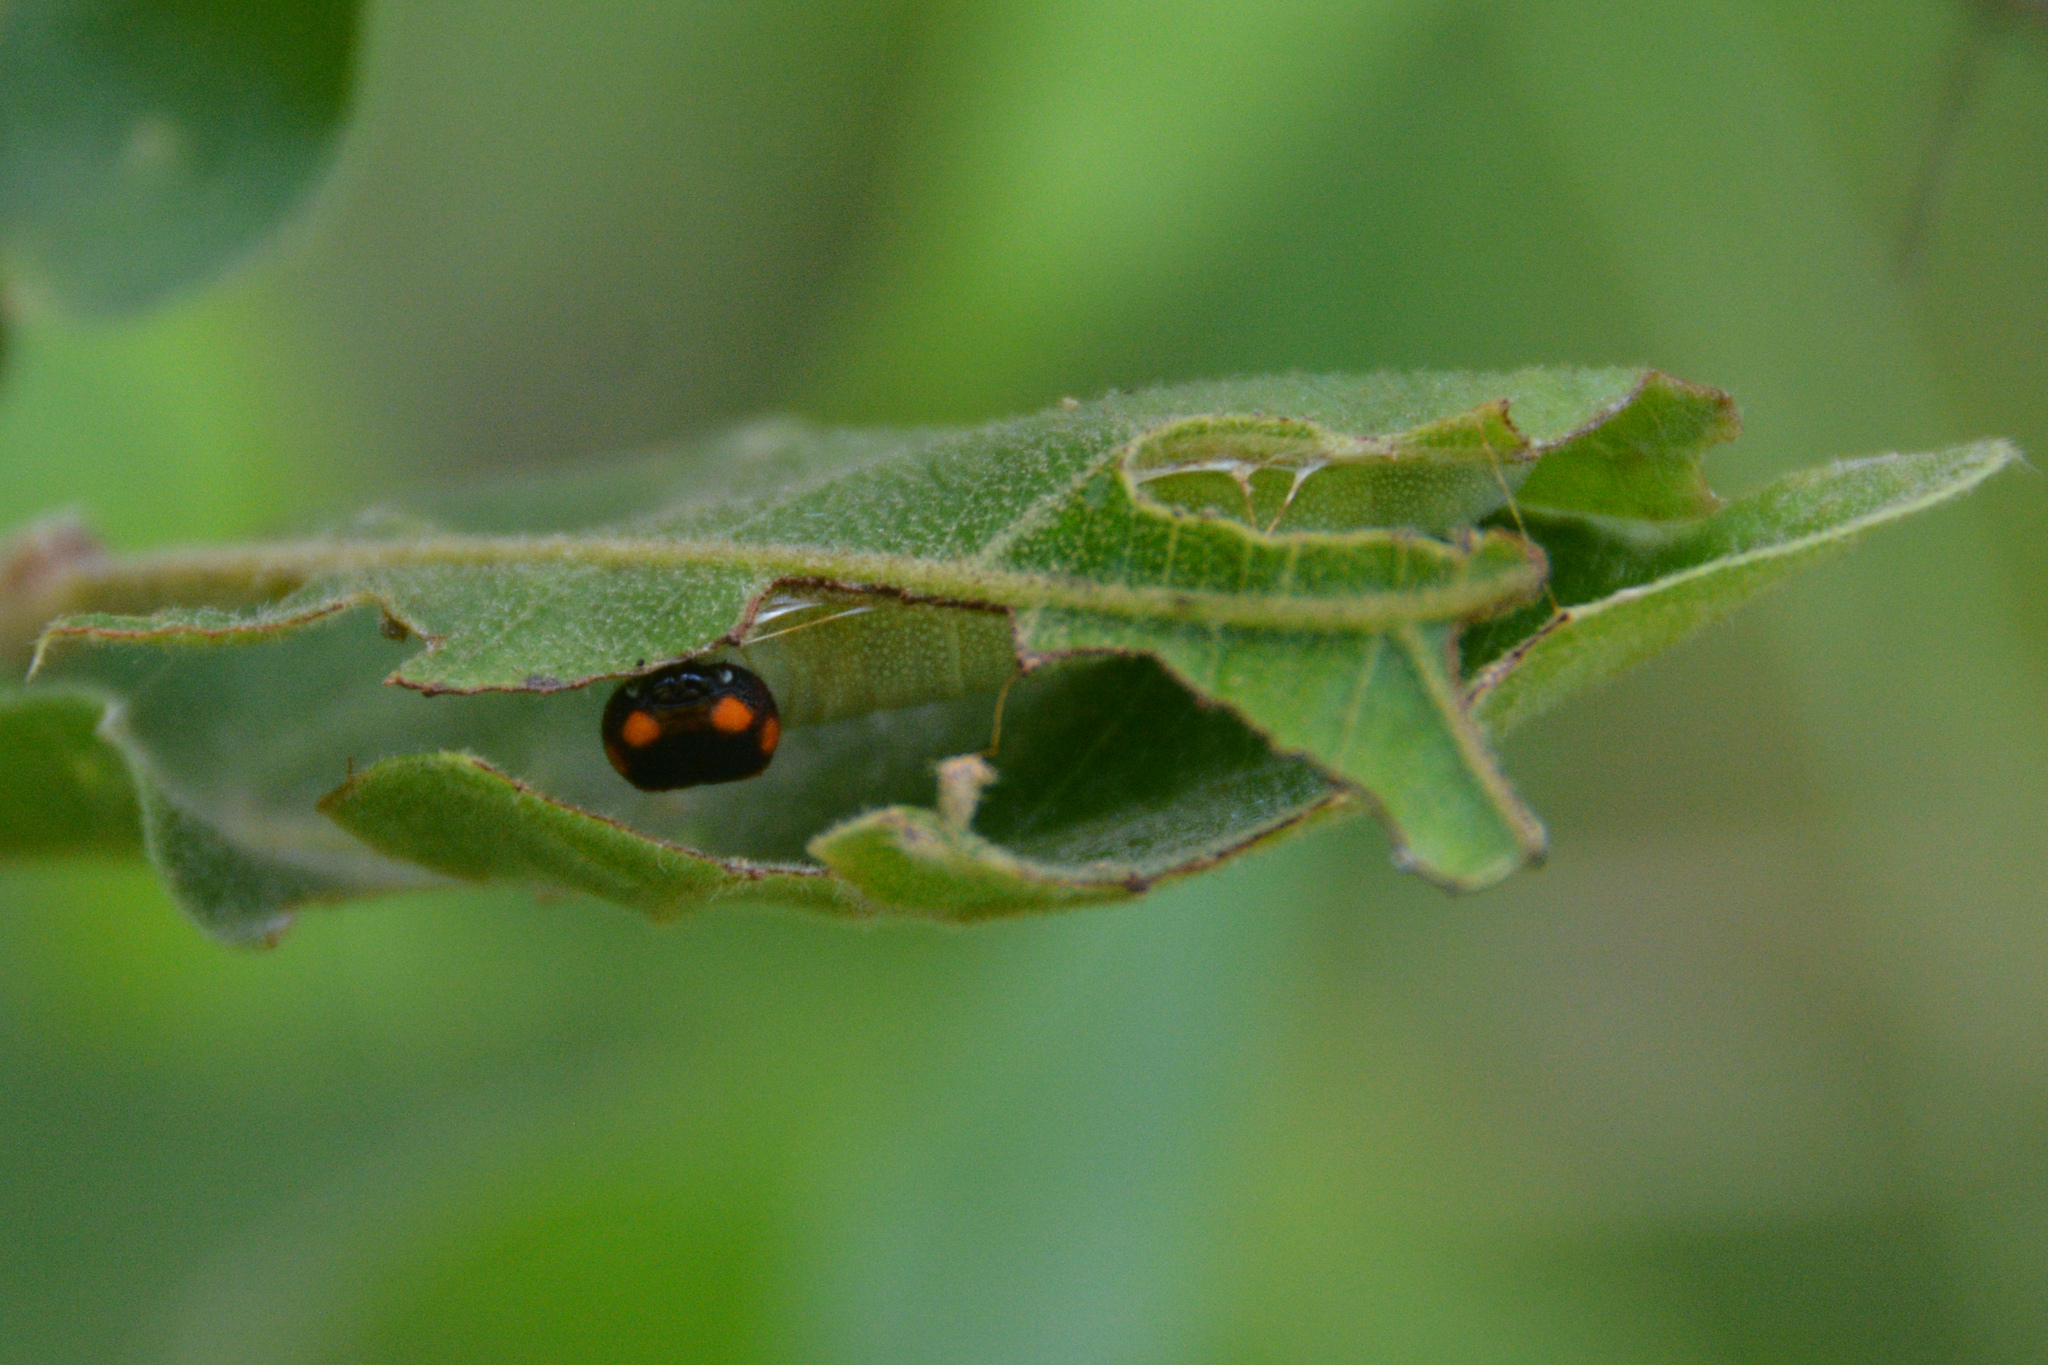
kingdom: Animalia
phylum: Arthropoda
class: Insecta
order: Lepidoptera
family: Hesperiidae
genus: Erynnis
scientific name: Erynnis horatius
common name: Horace's duskywing
